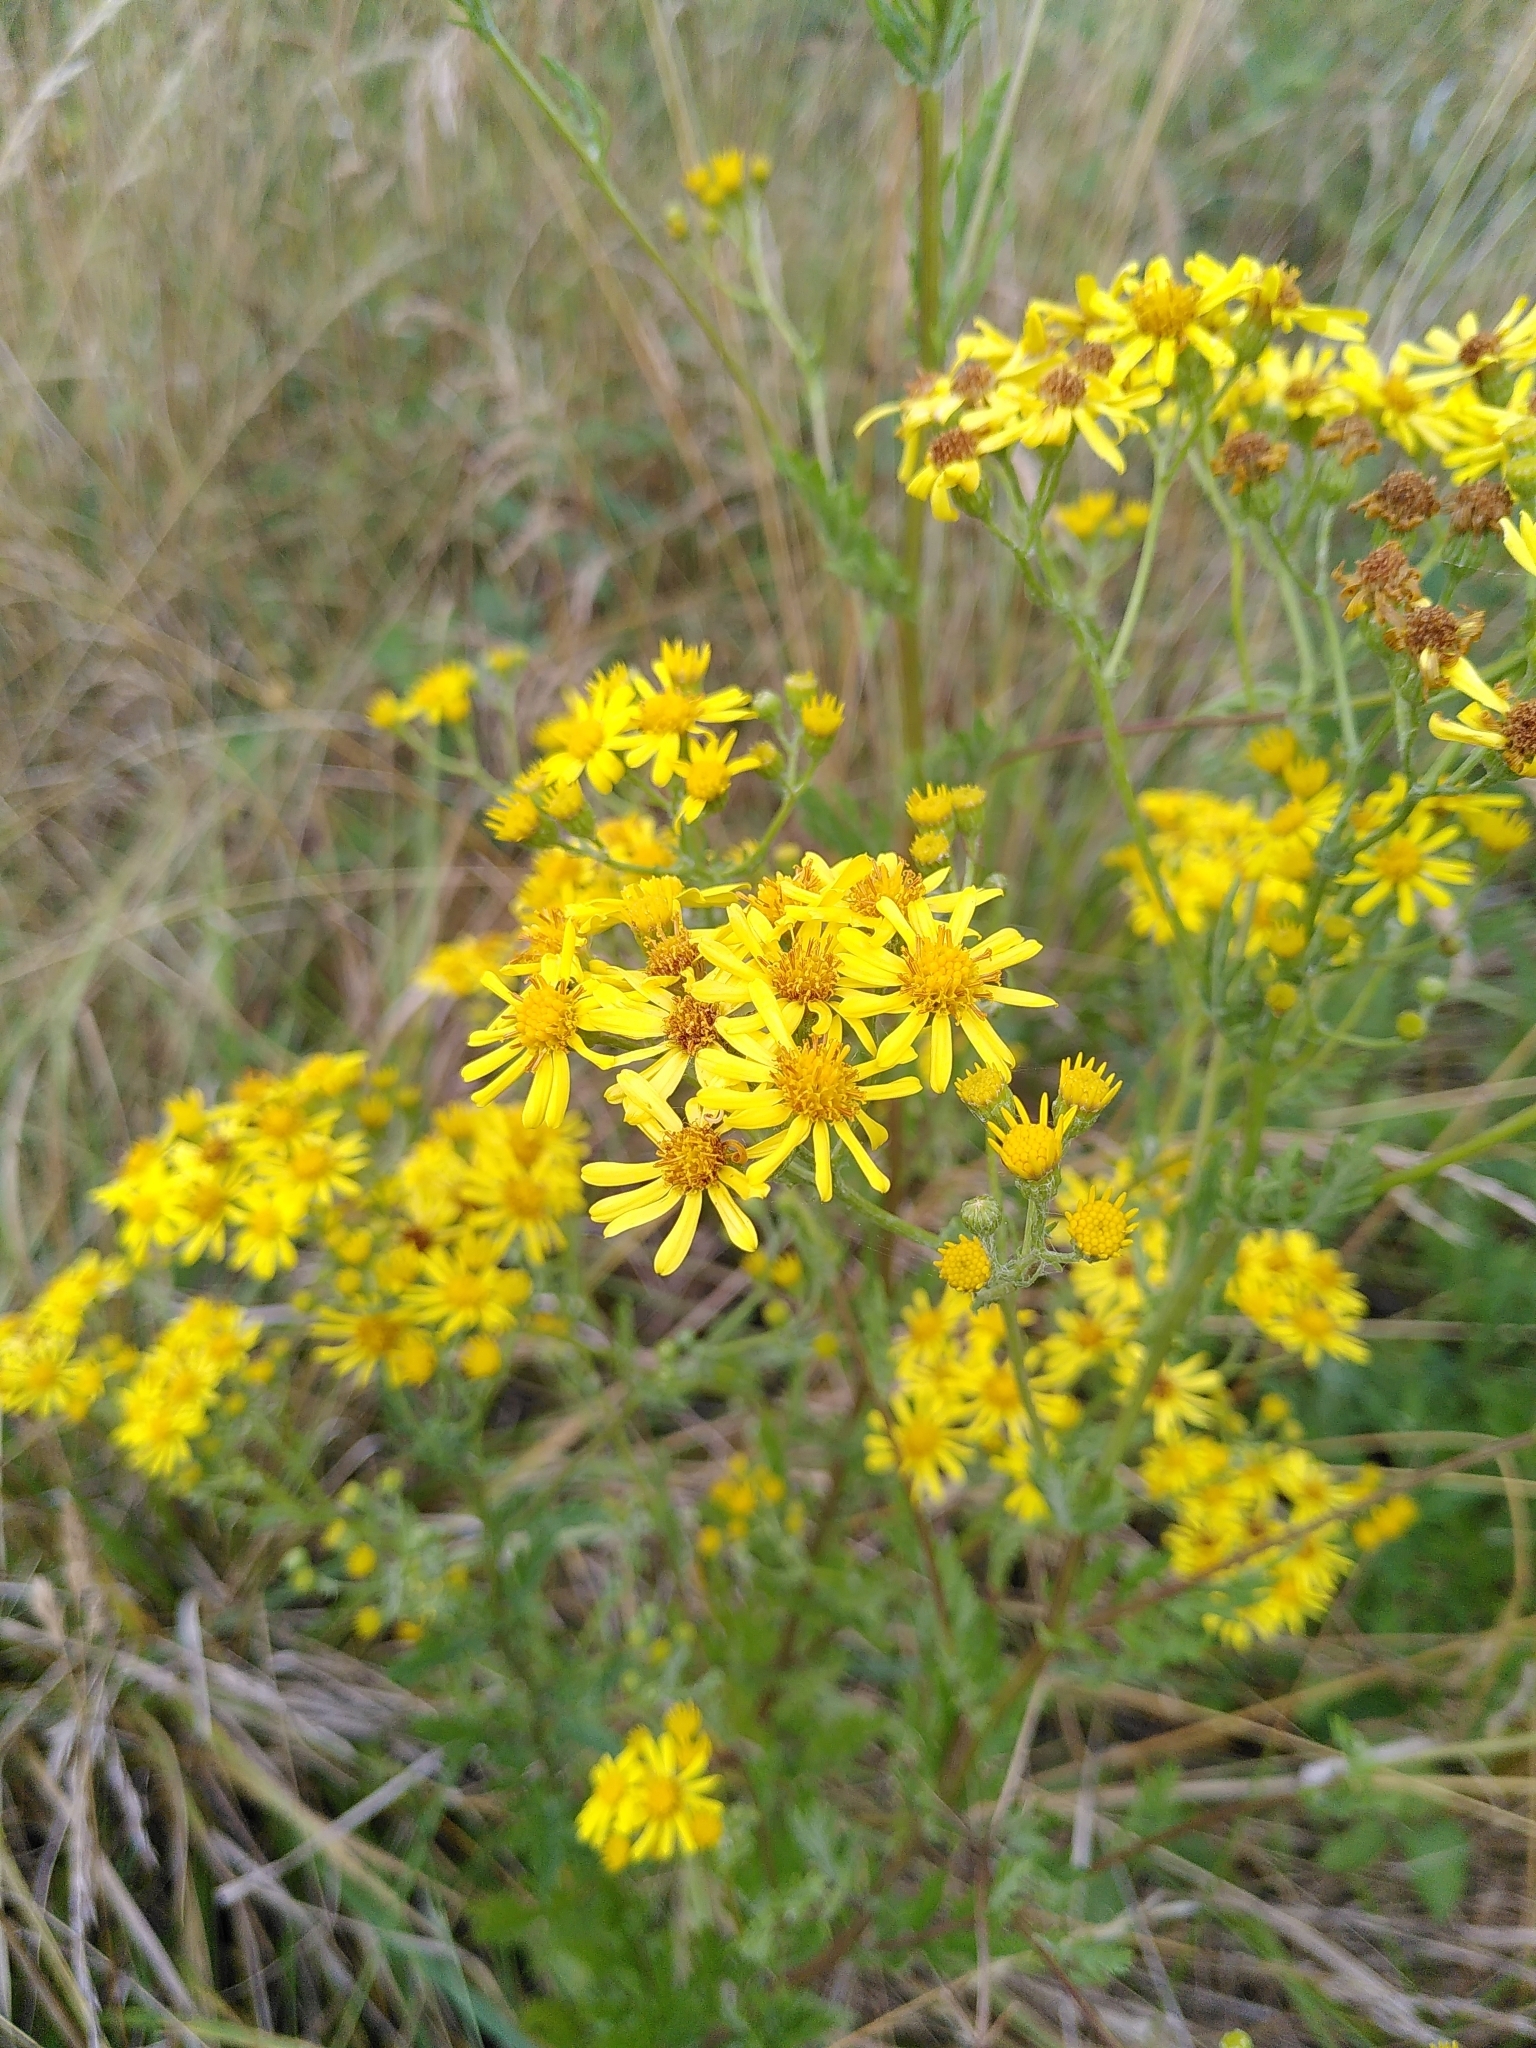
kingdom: Plantae
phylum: Tracheophyta
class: Magnoliopsida
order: Asterales
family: Asteraceae
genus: Jacobaea
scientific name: Jacobaea vulgaris
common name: Stinking willie
